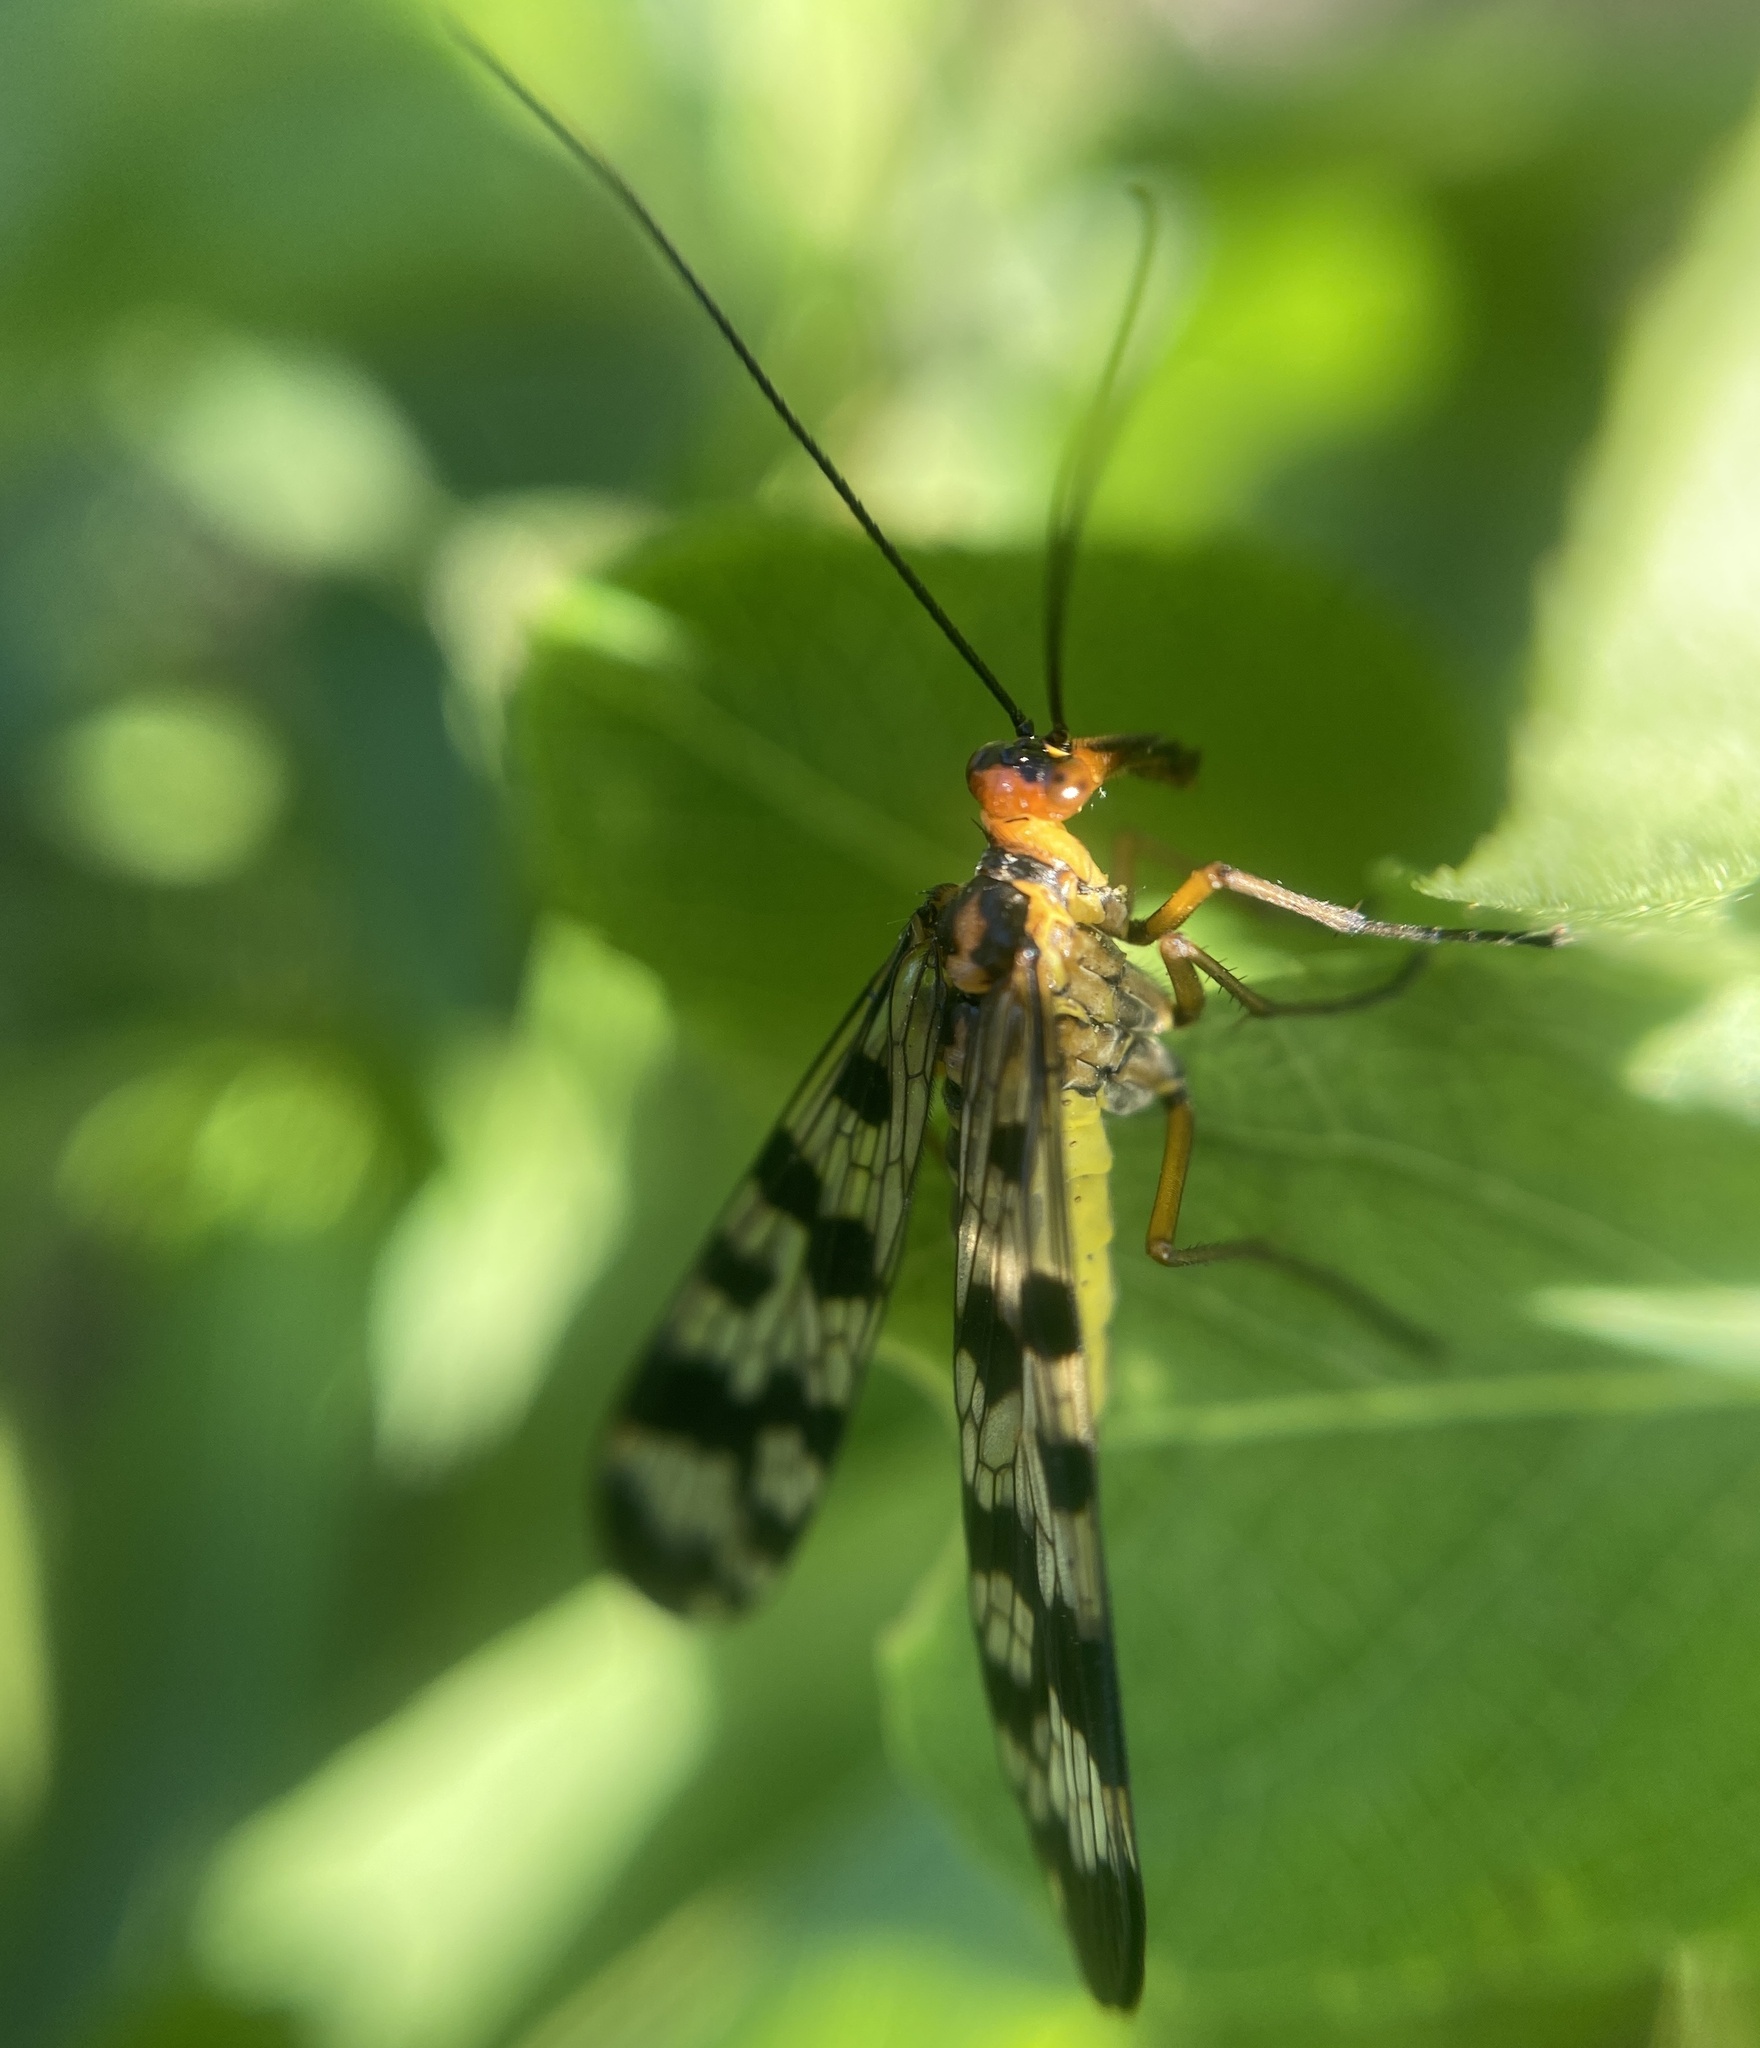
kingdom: Animalia
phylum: Arthropoda
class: Insecta
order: Mecoptera
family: Panorpidae
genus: Panorpa
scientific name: Panorpa meridionalis
